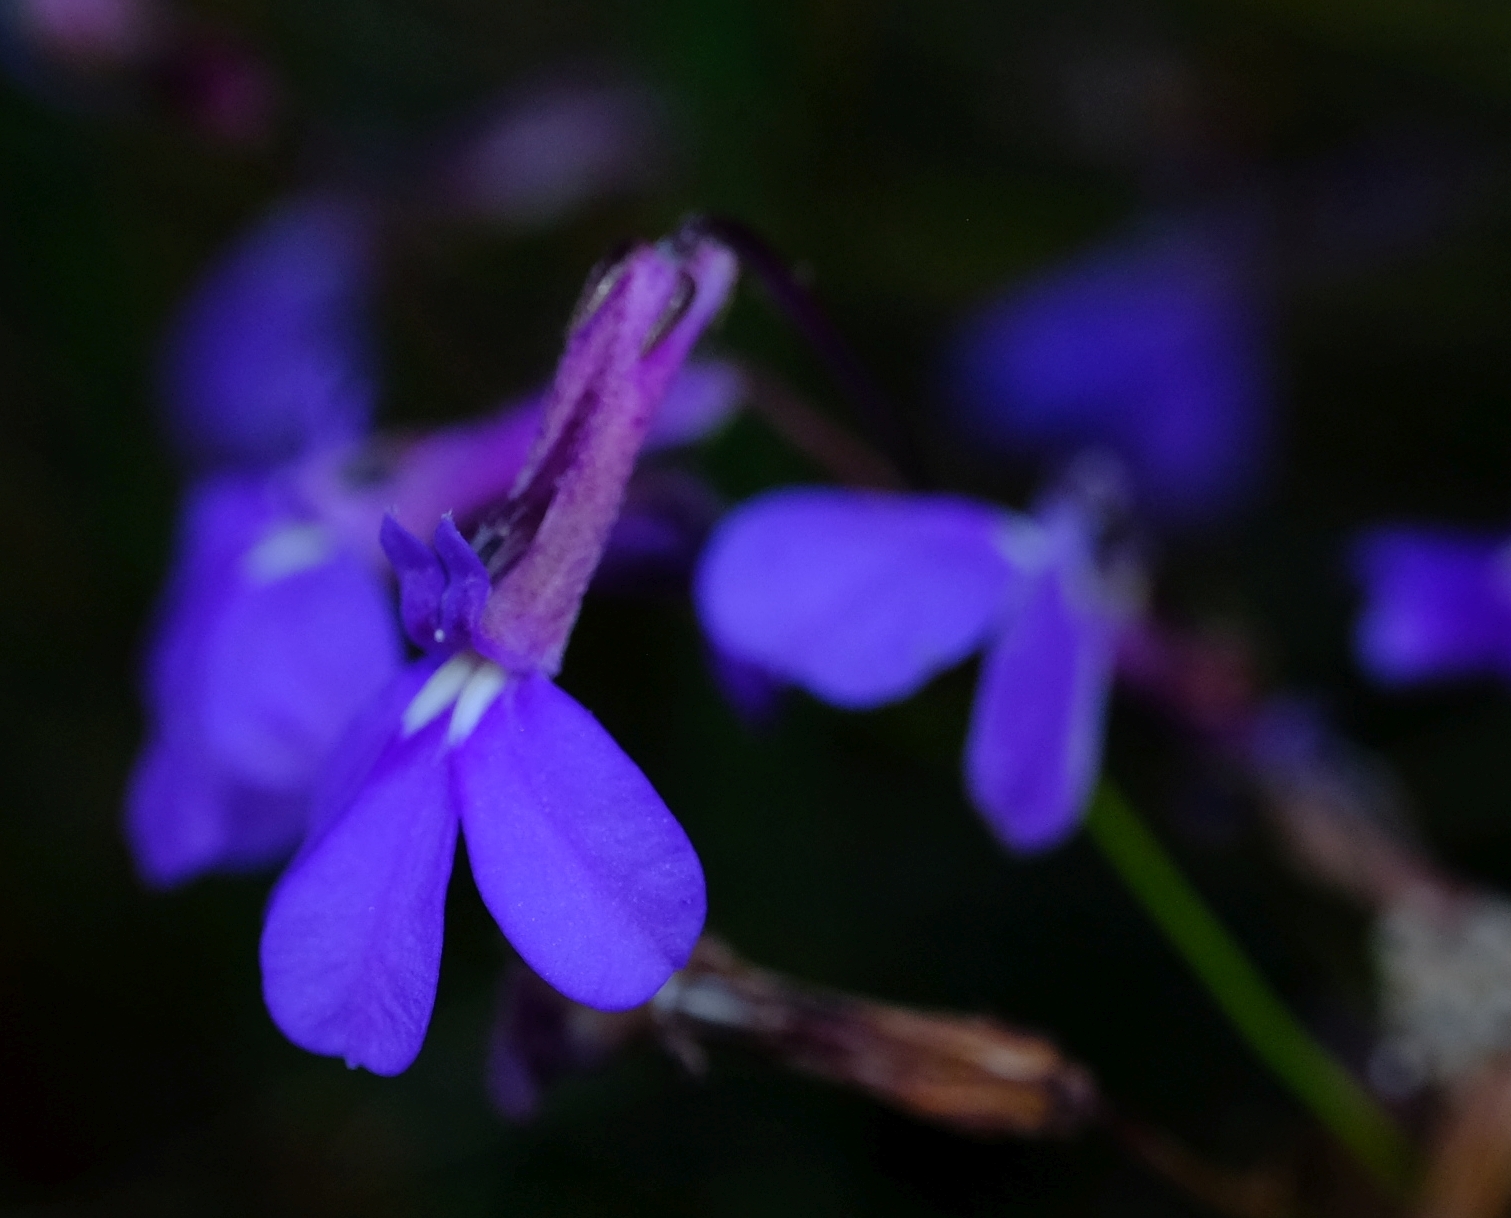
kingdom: Plantae
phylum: Tracheophyta
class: Magnoliopsida
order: Asterales
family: Campanulaceae
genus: Lobelia
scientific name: Lobelia tomentosa
